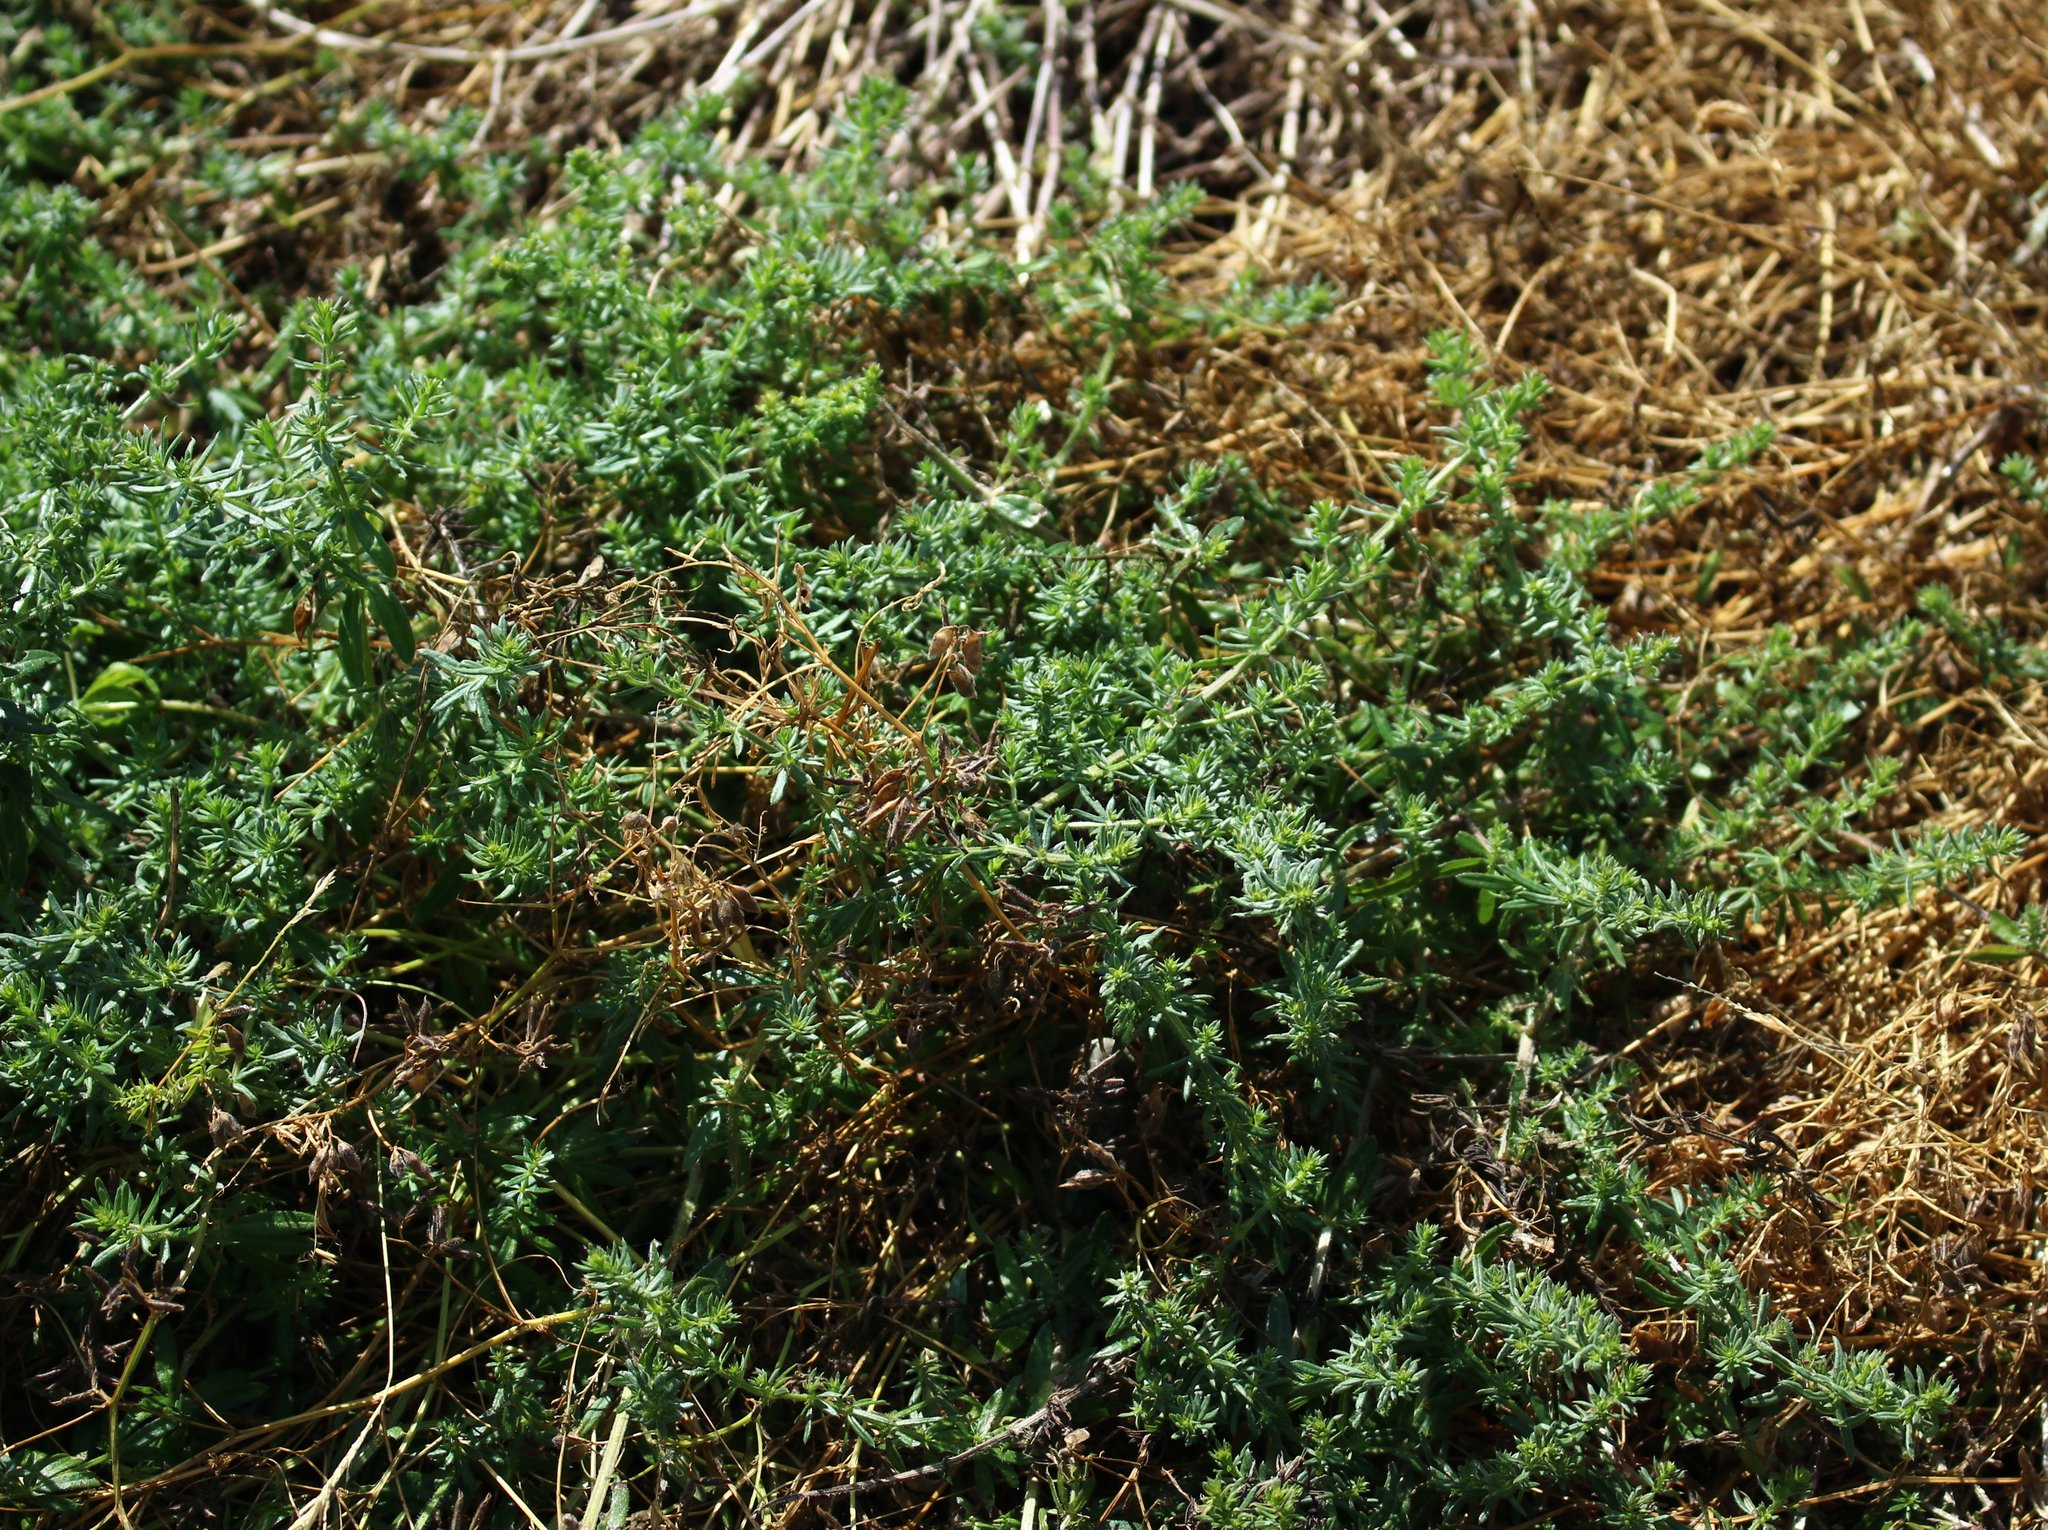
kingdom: Plantae
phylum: Tracheophyta
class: Magnoliopsida
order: Gentianales
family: Rubiaceae
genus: Galium
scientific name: Galium humifusum
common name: Spreading bedstraw
